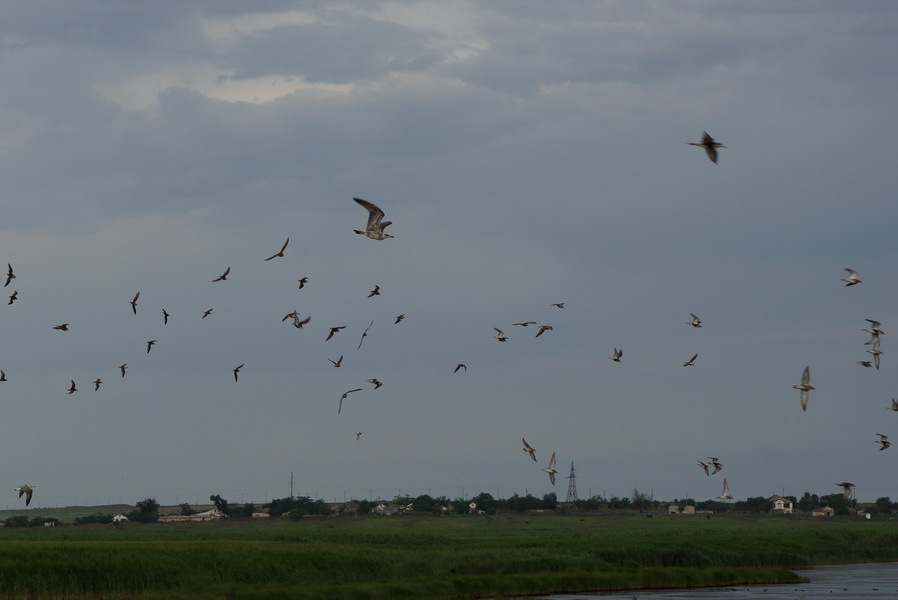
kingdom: Animalia
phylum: Chordata
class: Aves
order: Charadriiformes
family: Laridae
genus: Larus
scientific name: Larus cachinnans
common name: Caspian gull
